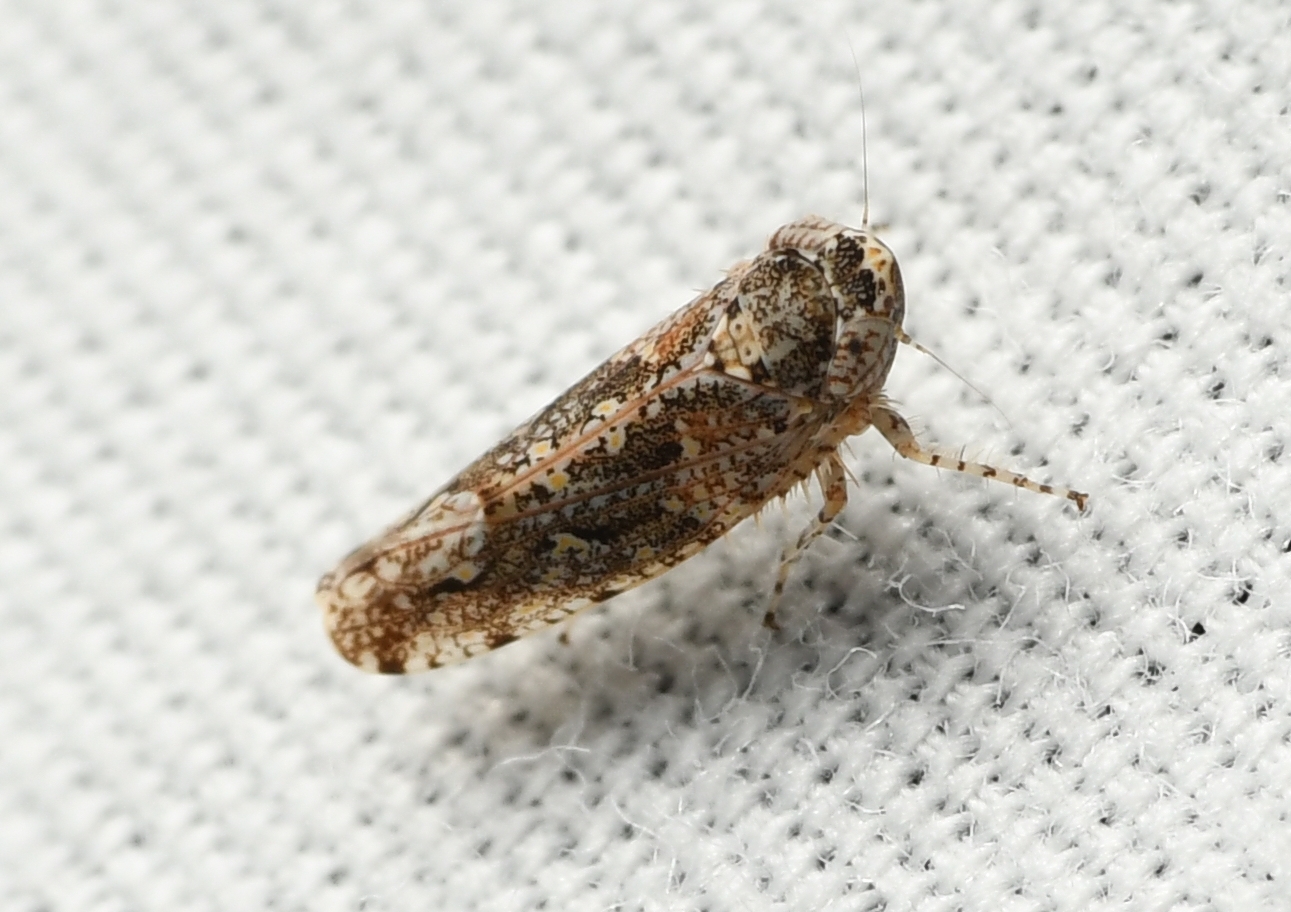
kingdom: Animalia
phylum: Arthropoda
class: Insecta
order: Hemiptera
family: Cicadellidae
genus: Dixianus
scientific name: Dixianus utahnus
